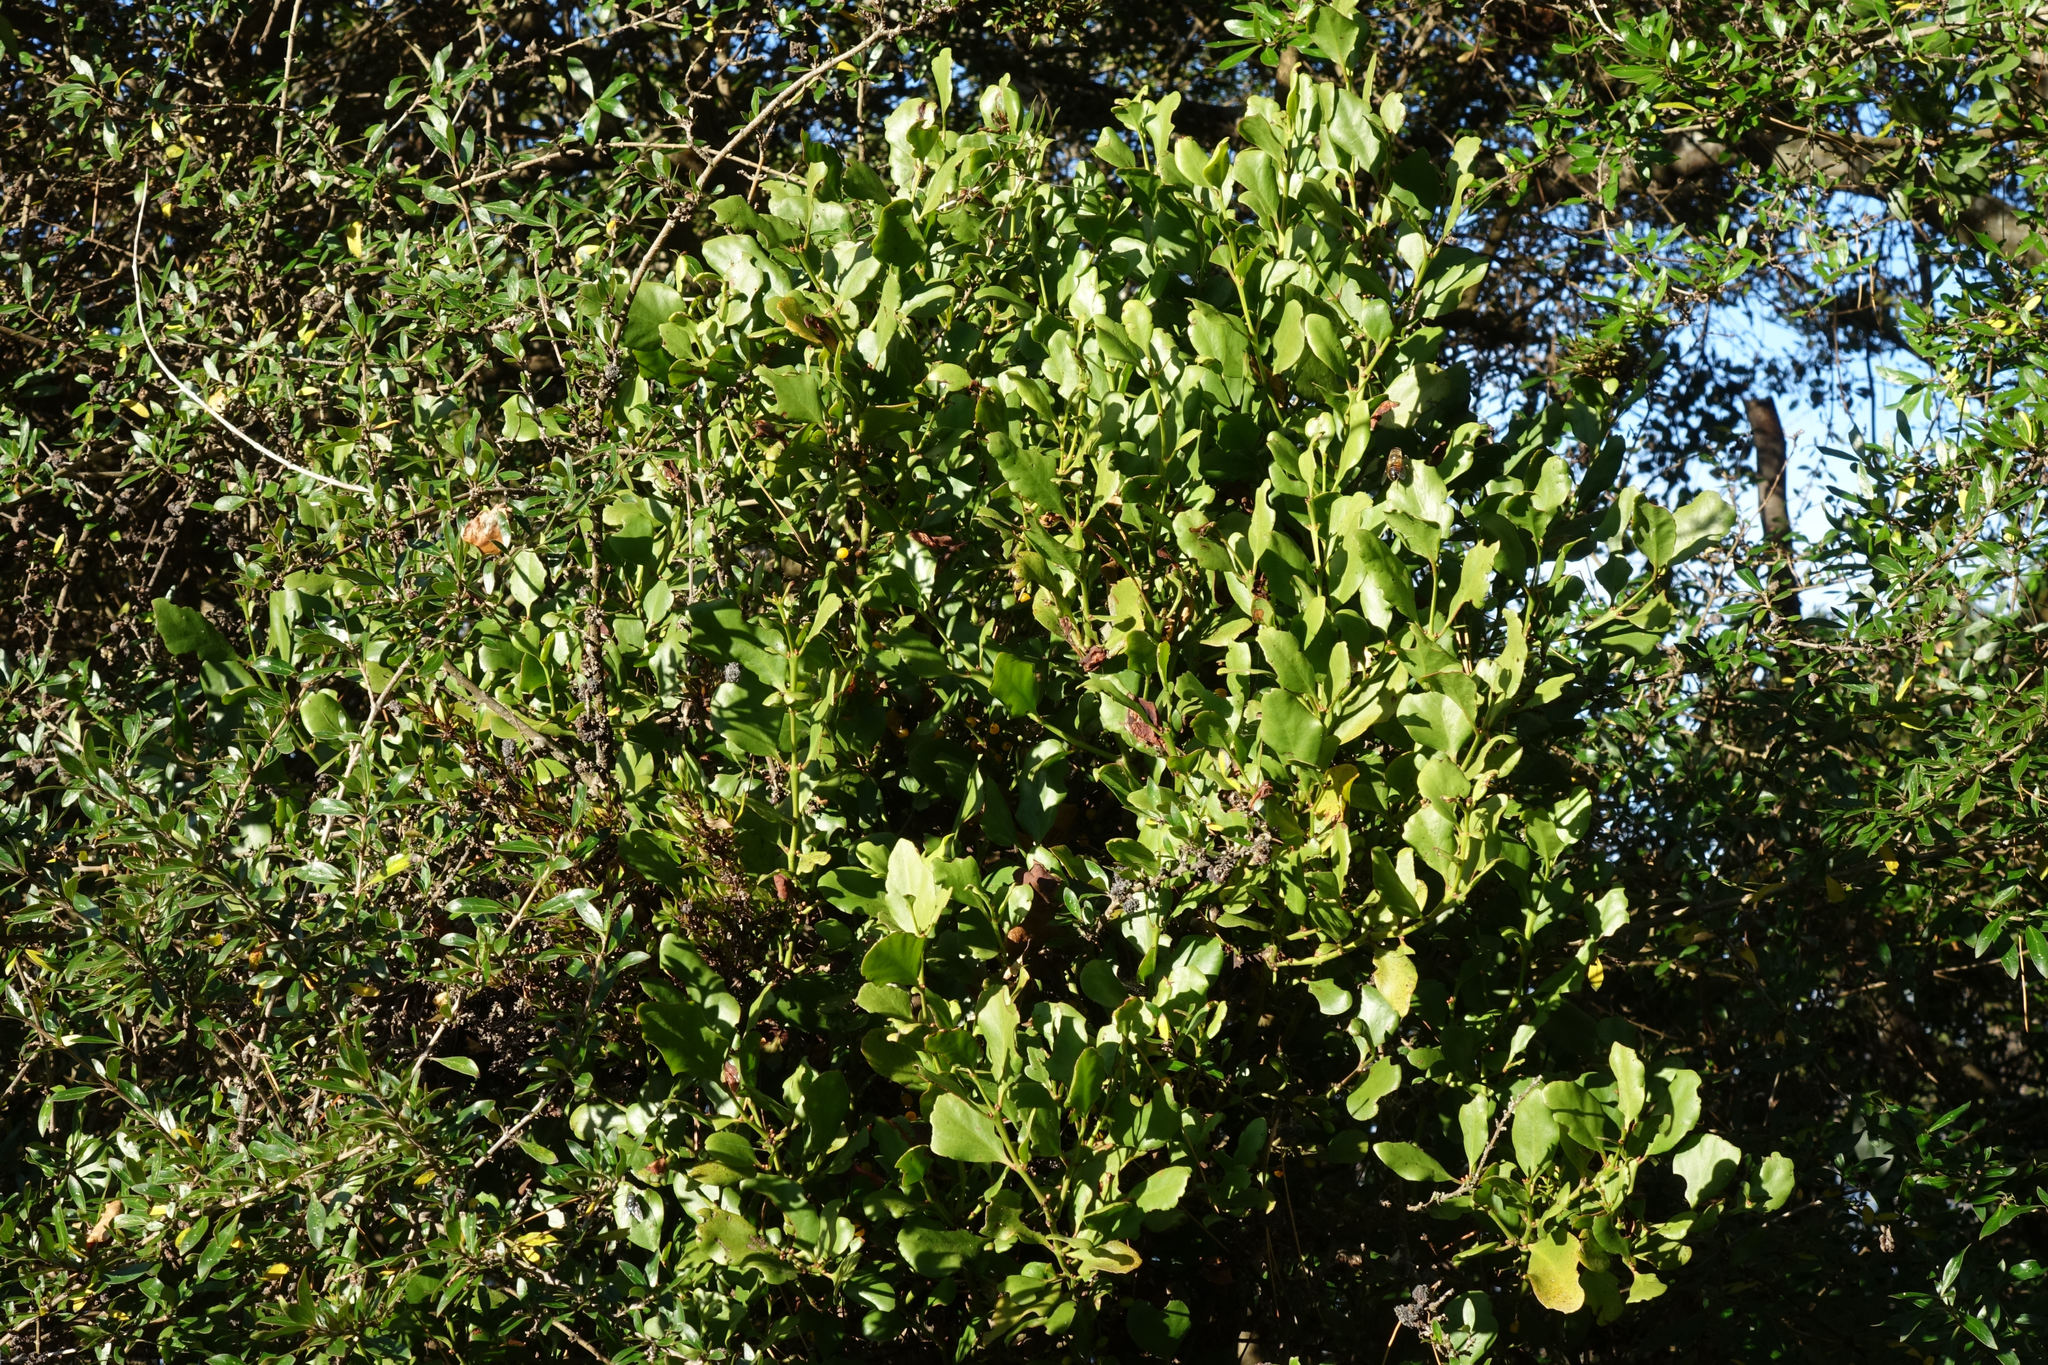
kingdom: Plantae
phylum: Tracheophyta
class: Magnoliopsida
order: Santalales
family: Loranthaceae
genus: Ileostylus
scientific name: Ileostylus micranthus
